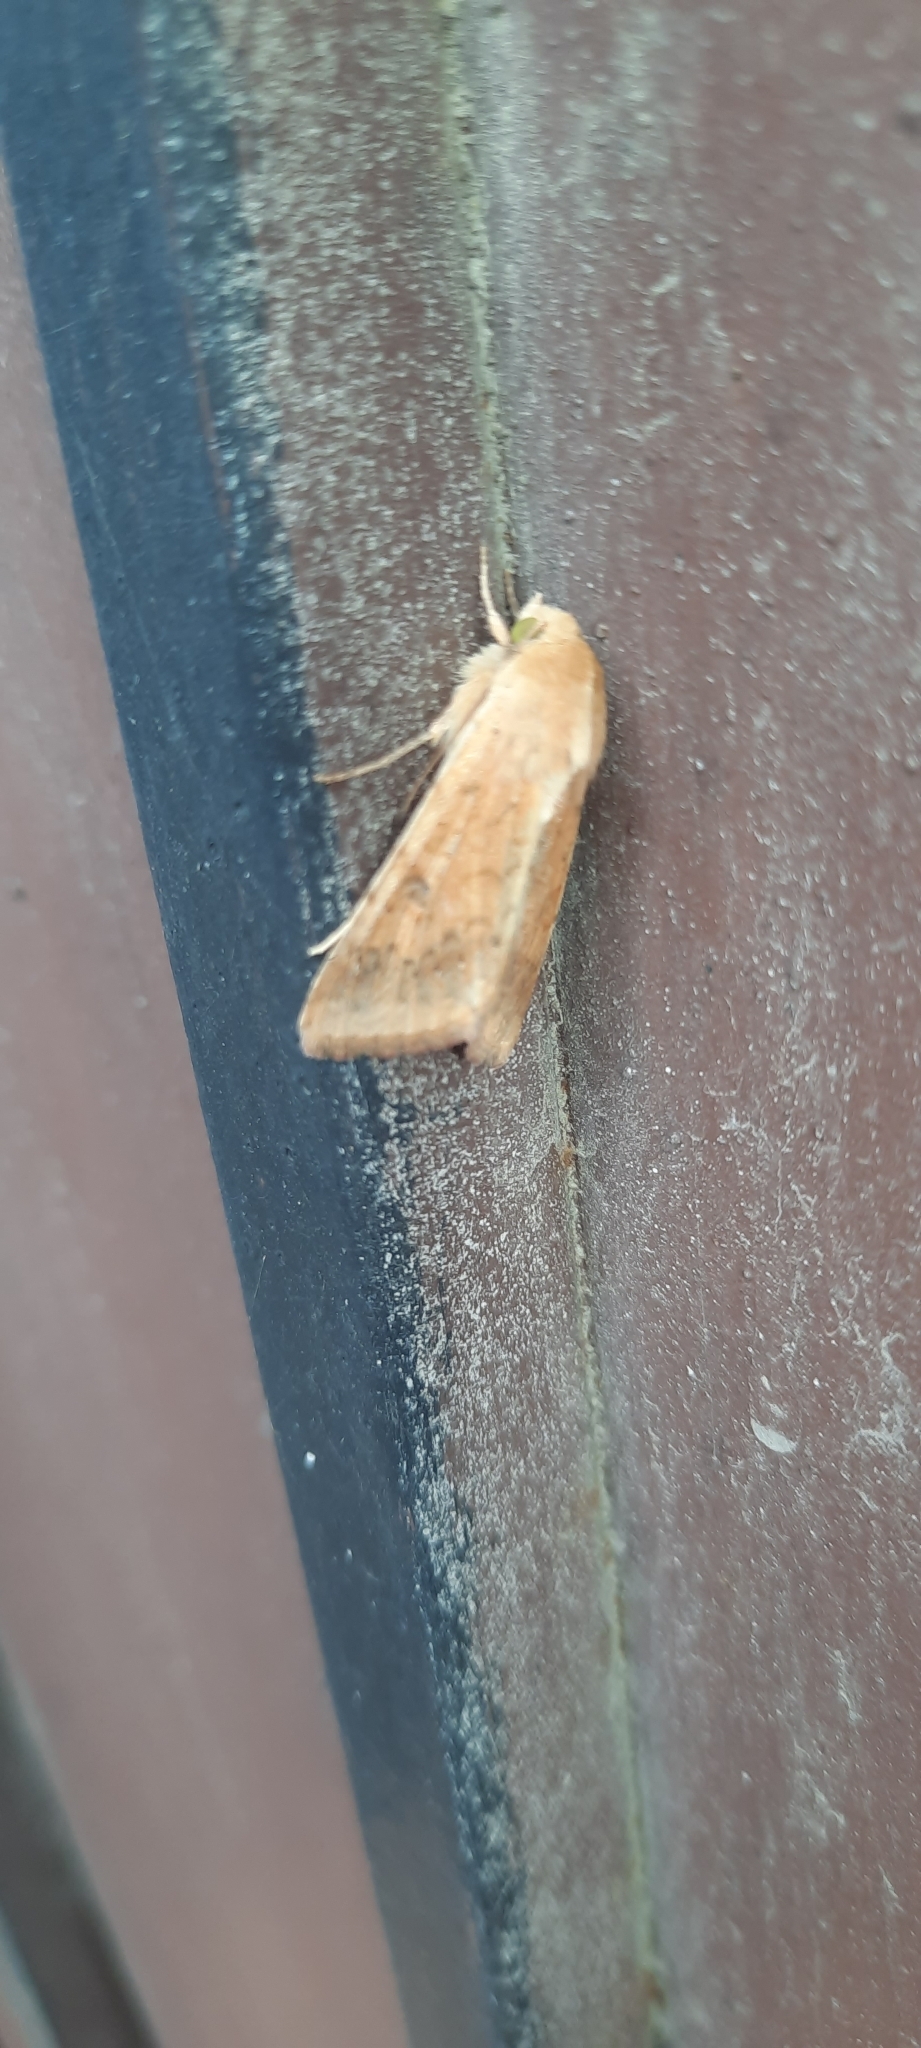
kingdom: Animalia
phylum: Arthropoda
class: Insecta
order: Lepidoptera
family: Noctuidae
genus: Helicoverpa
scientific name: Helicoverpa armigera
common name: Cotton bollworm
